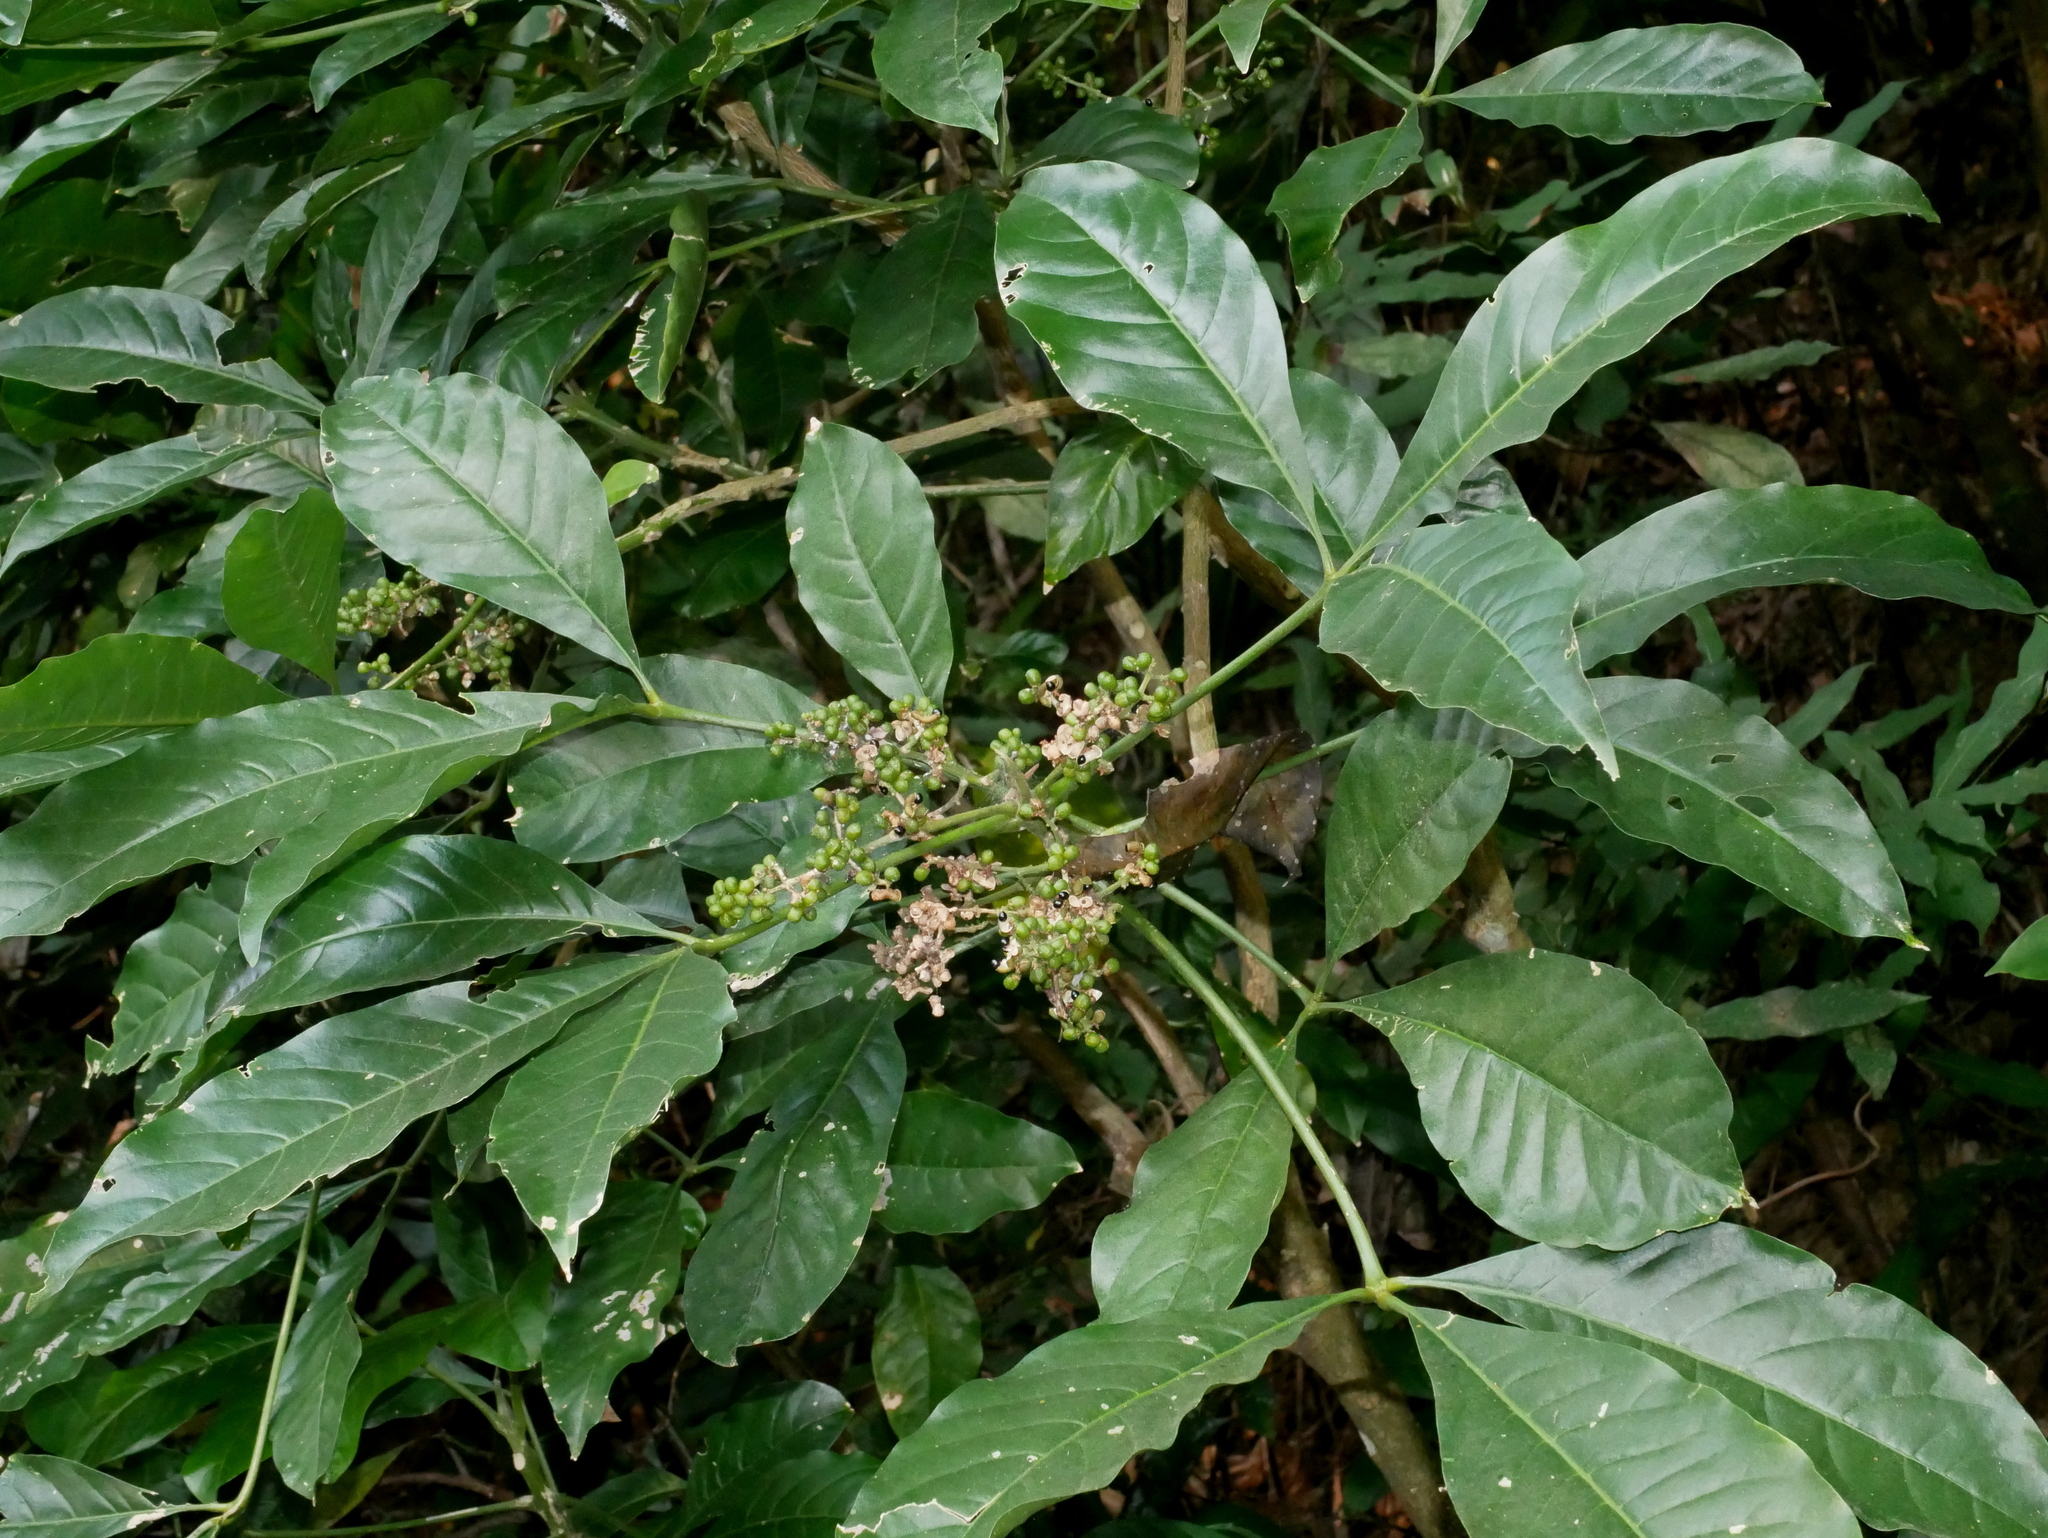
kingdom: Plantae
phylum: Tracheophyta
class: Magnoliopsida
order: Sapindales
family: Rutaceae
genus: Melicope
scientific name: Melicope semecarpifolia
